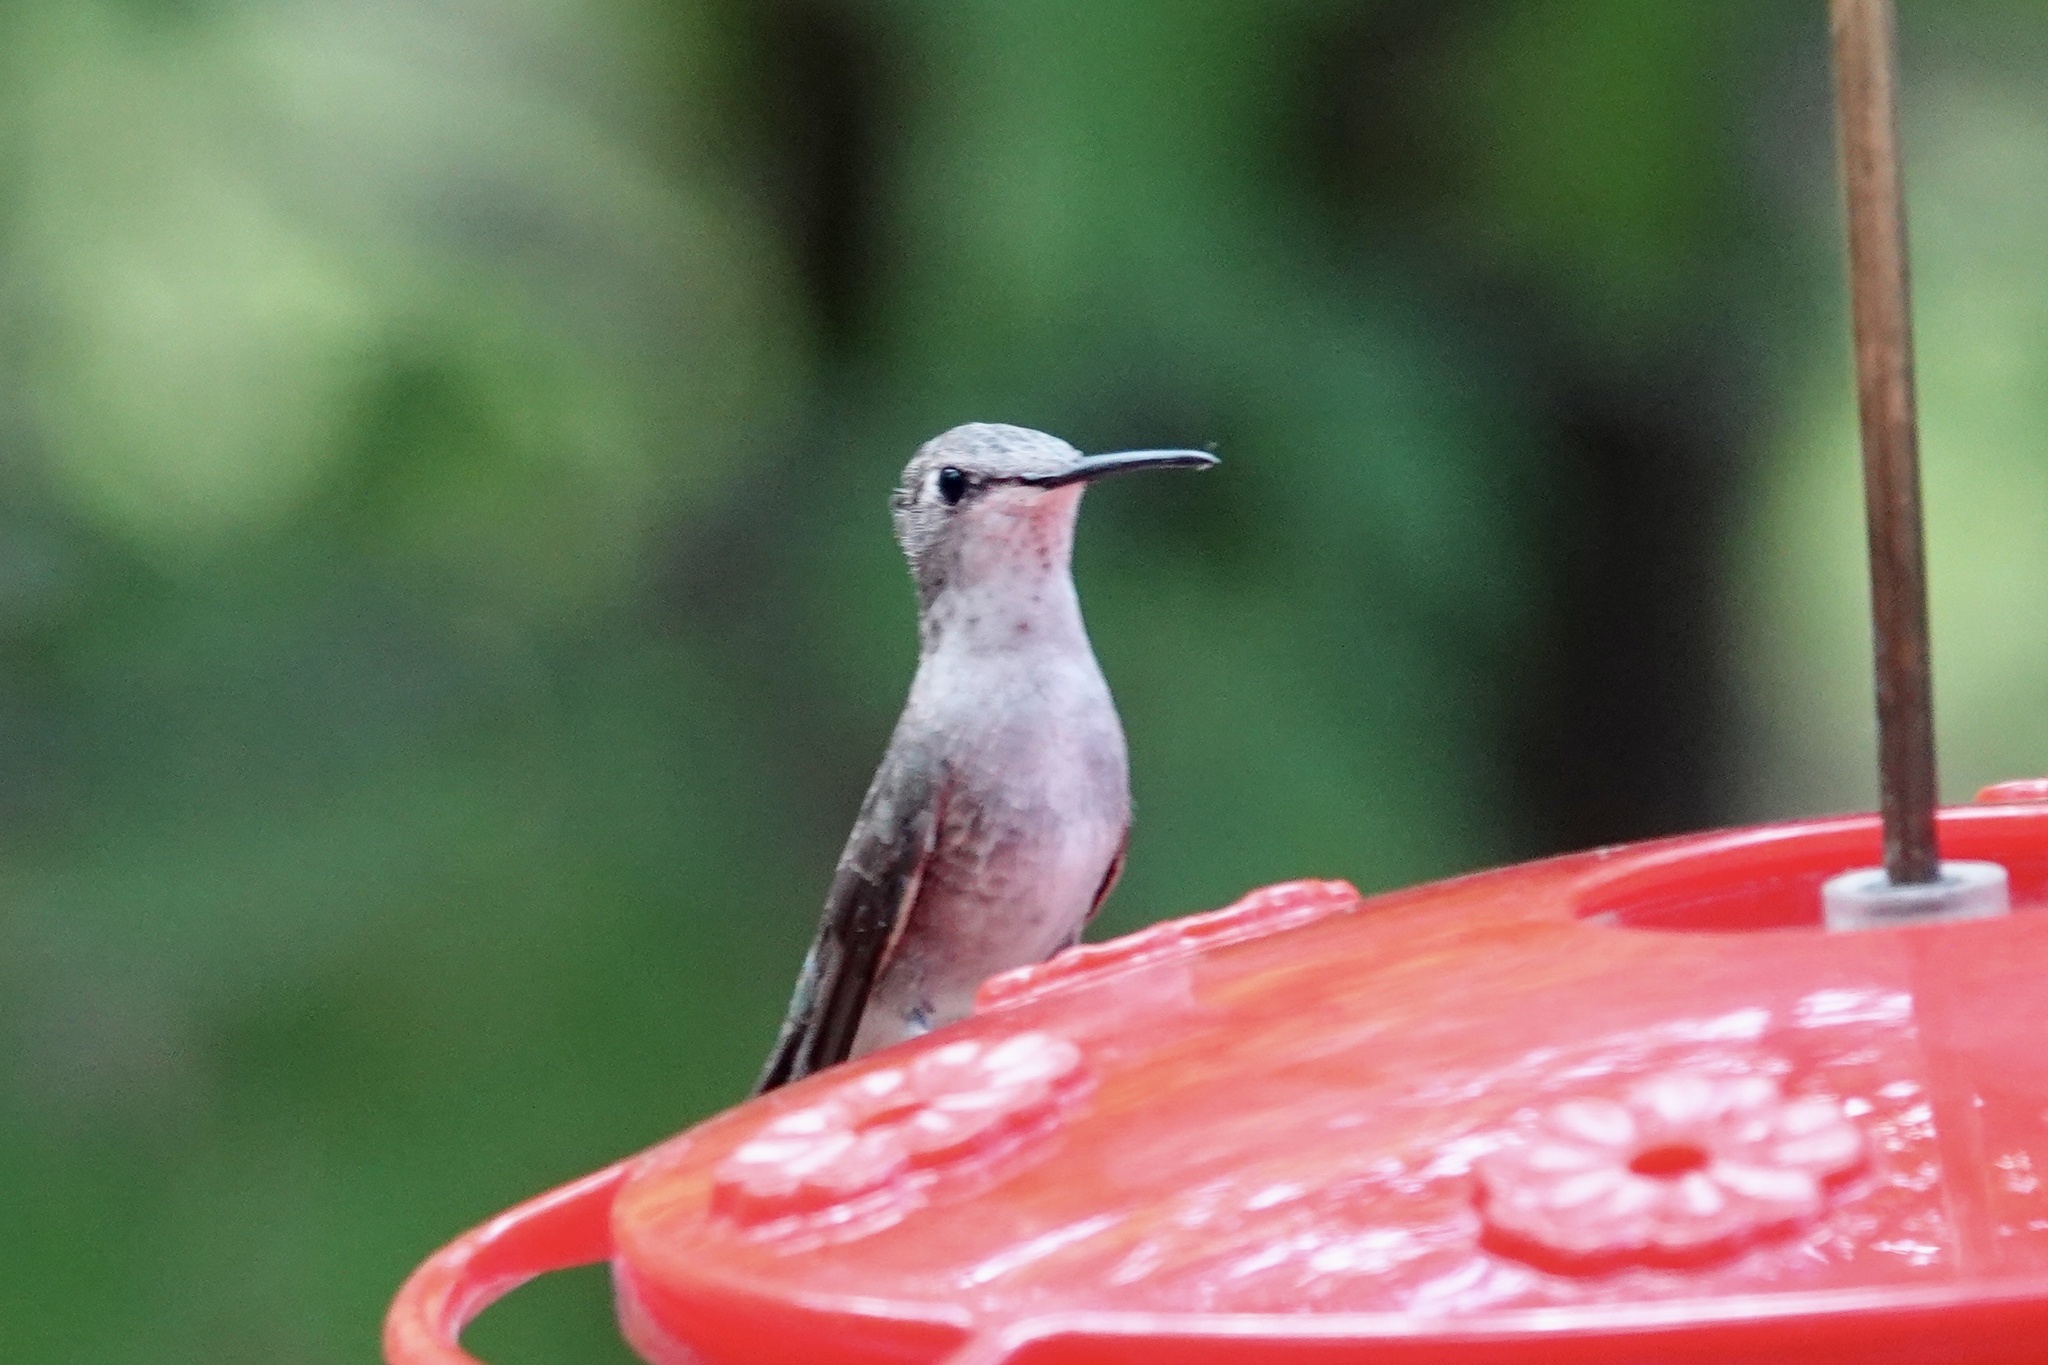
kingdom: Animalia
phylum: Chordata
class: Aves
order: Apodiformes
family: Trochilidae
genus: Archilochus
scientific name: Archilochus alexandri
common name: Black-chinned hummingbird
